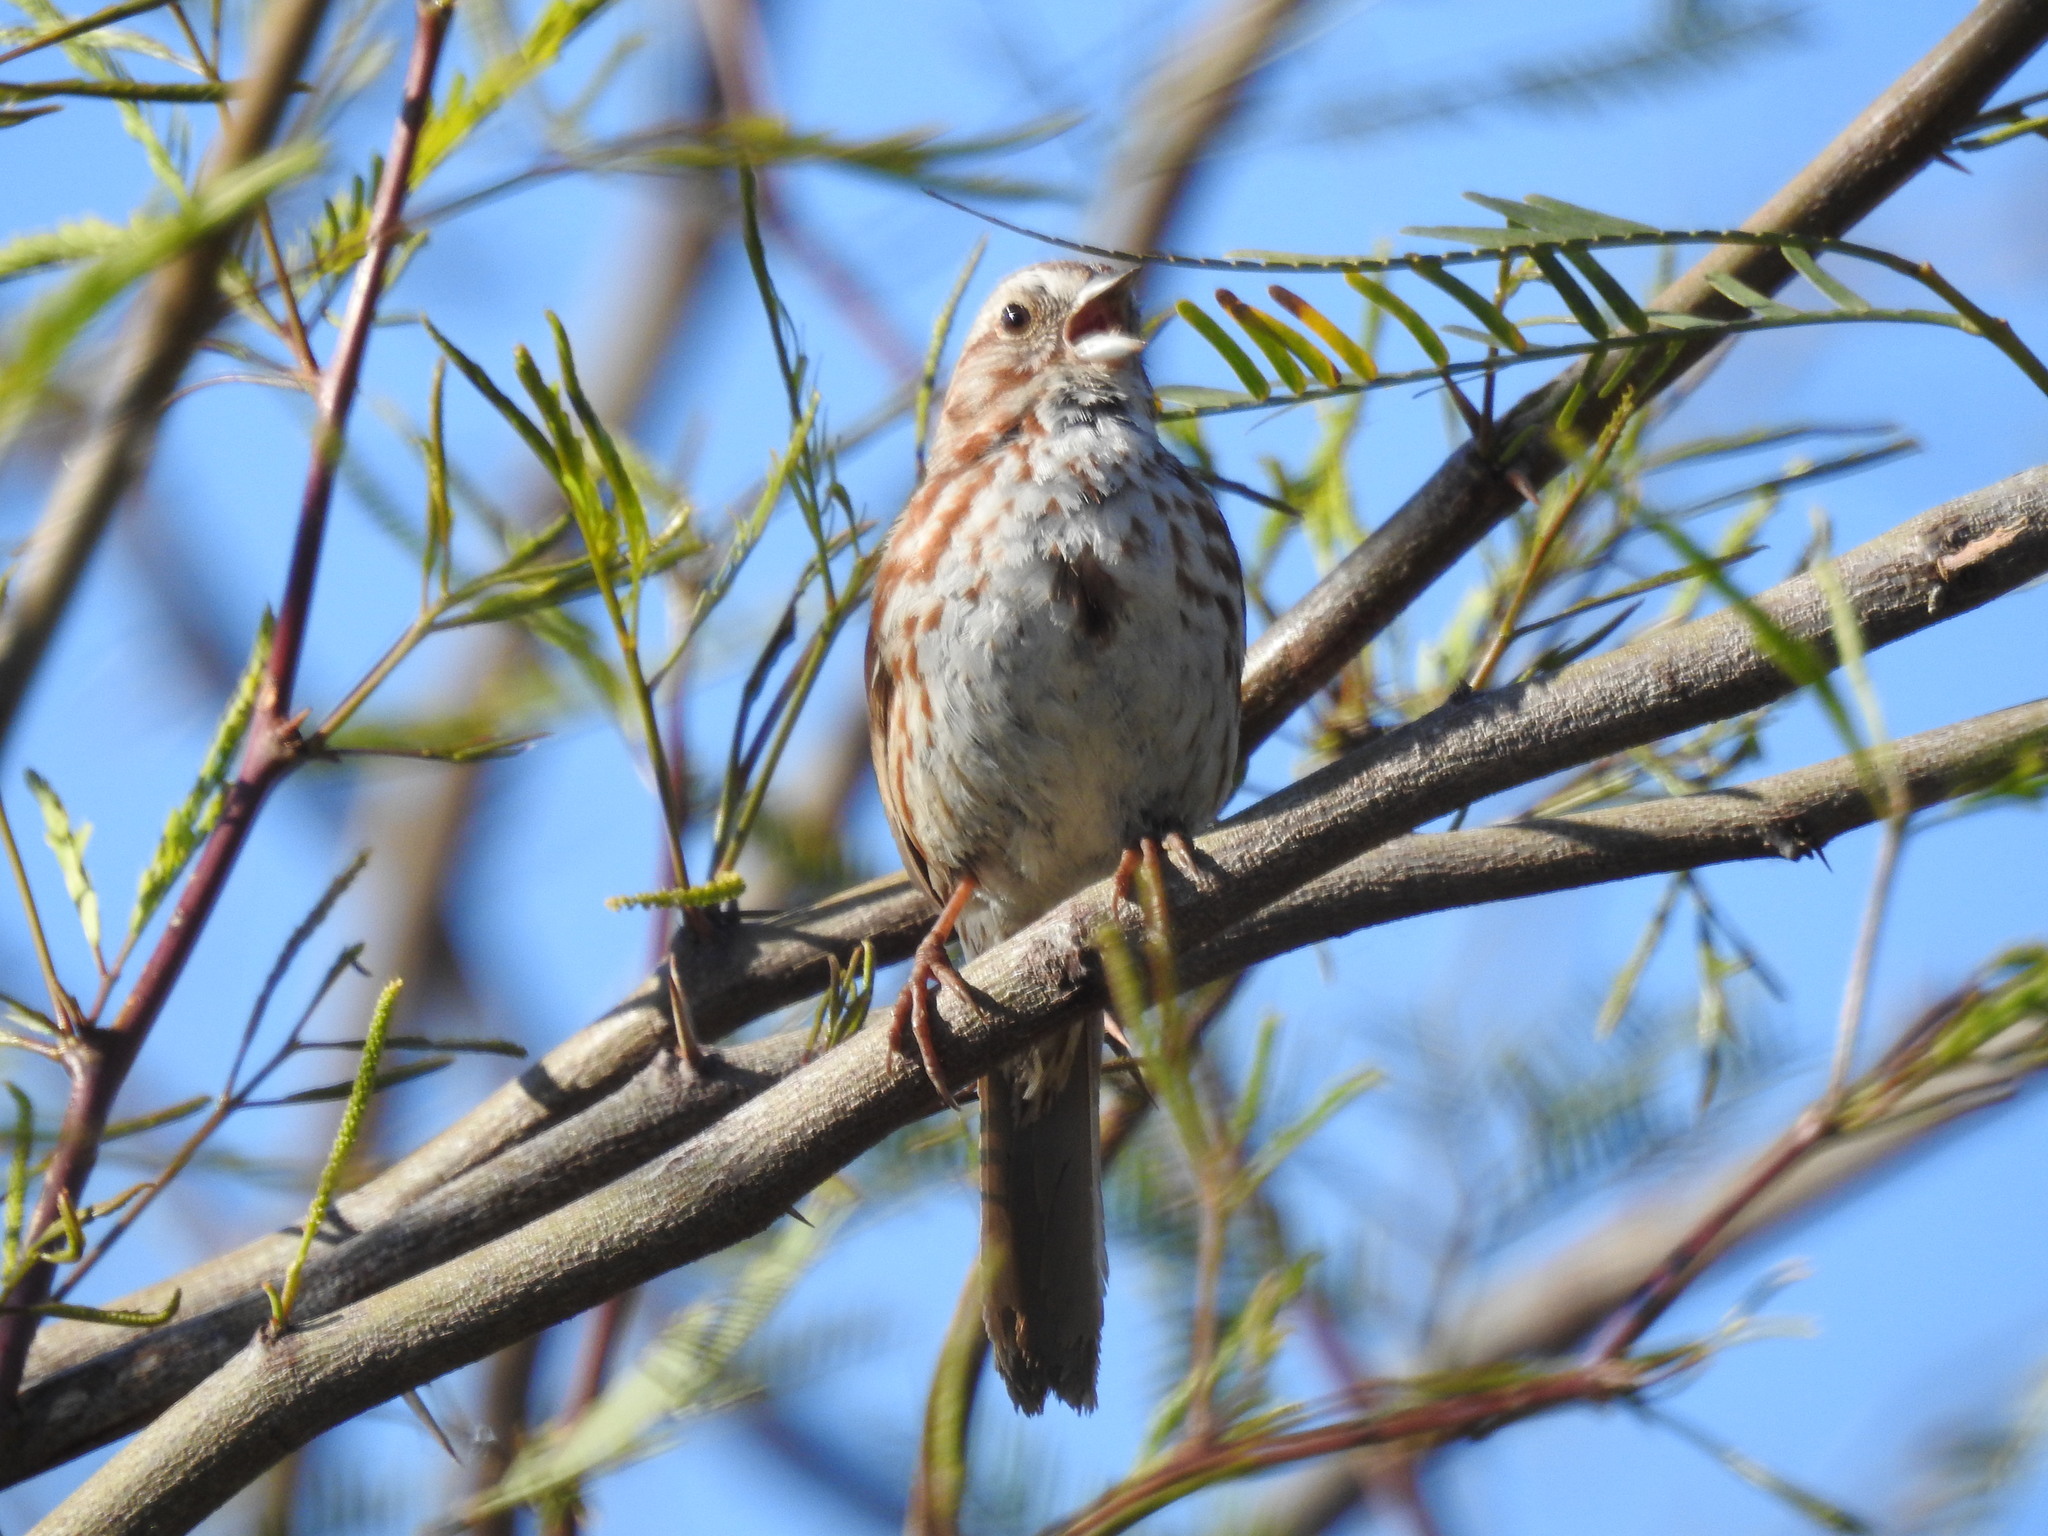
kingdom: Animalia
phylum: Chordata
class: Aves
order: Passeriformes
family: Passerellidae
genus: Melospiza
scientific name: Melospiza melodia
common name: Song sparrow
